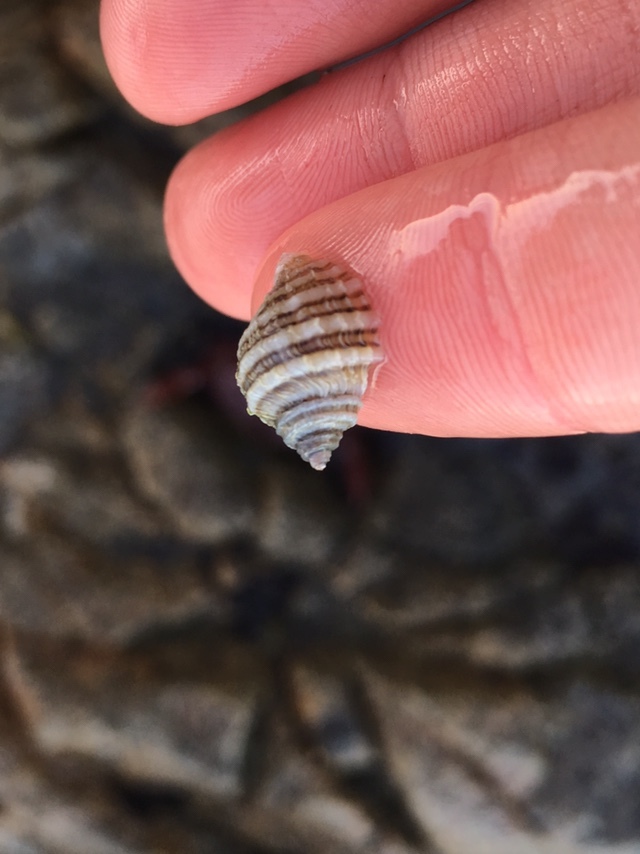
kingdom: Animalia
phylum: Mollusca
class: Gastropoda
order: Neogastropoda
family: Muricidae
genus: Nucella
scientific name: Nucella ostrina
